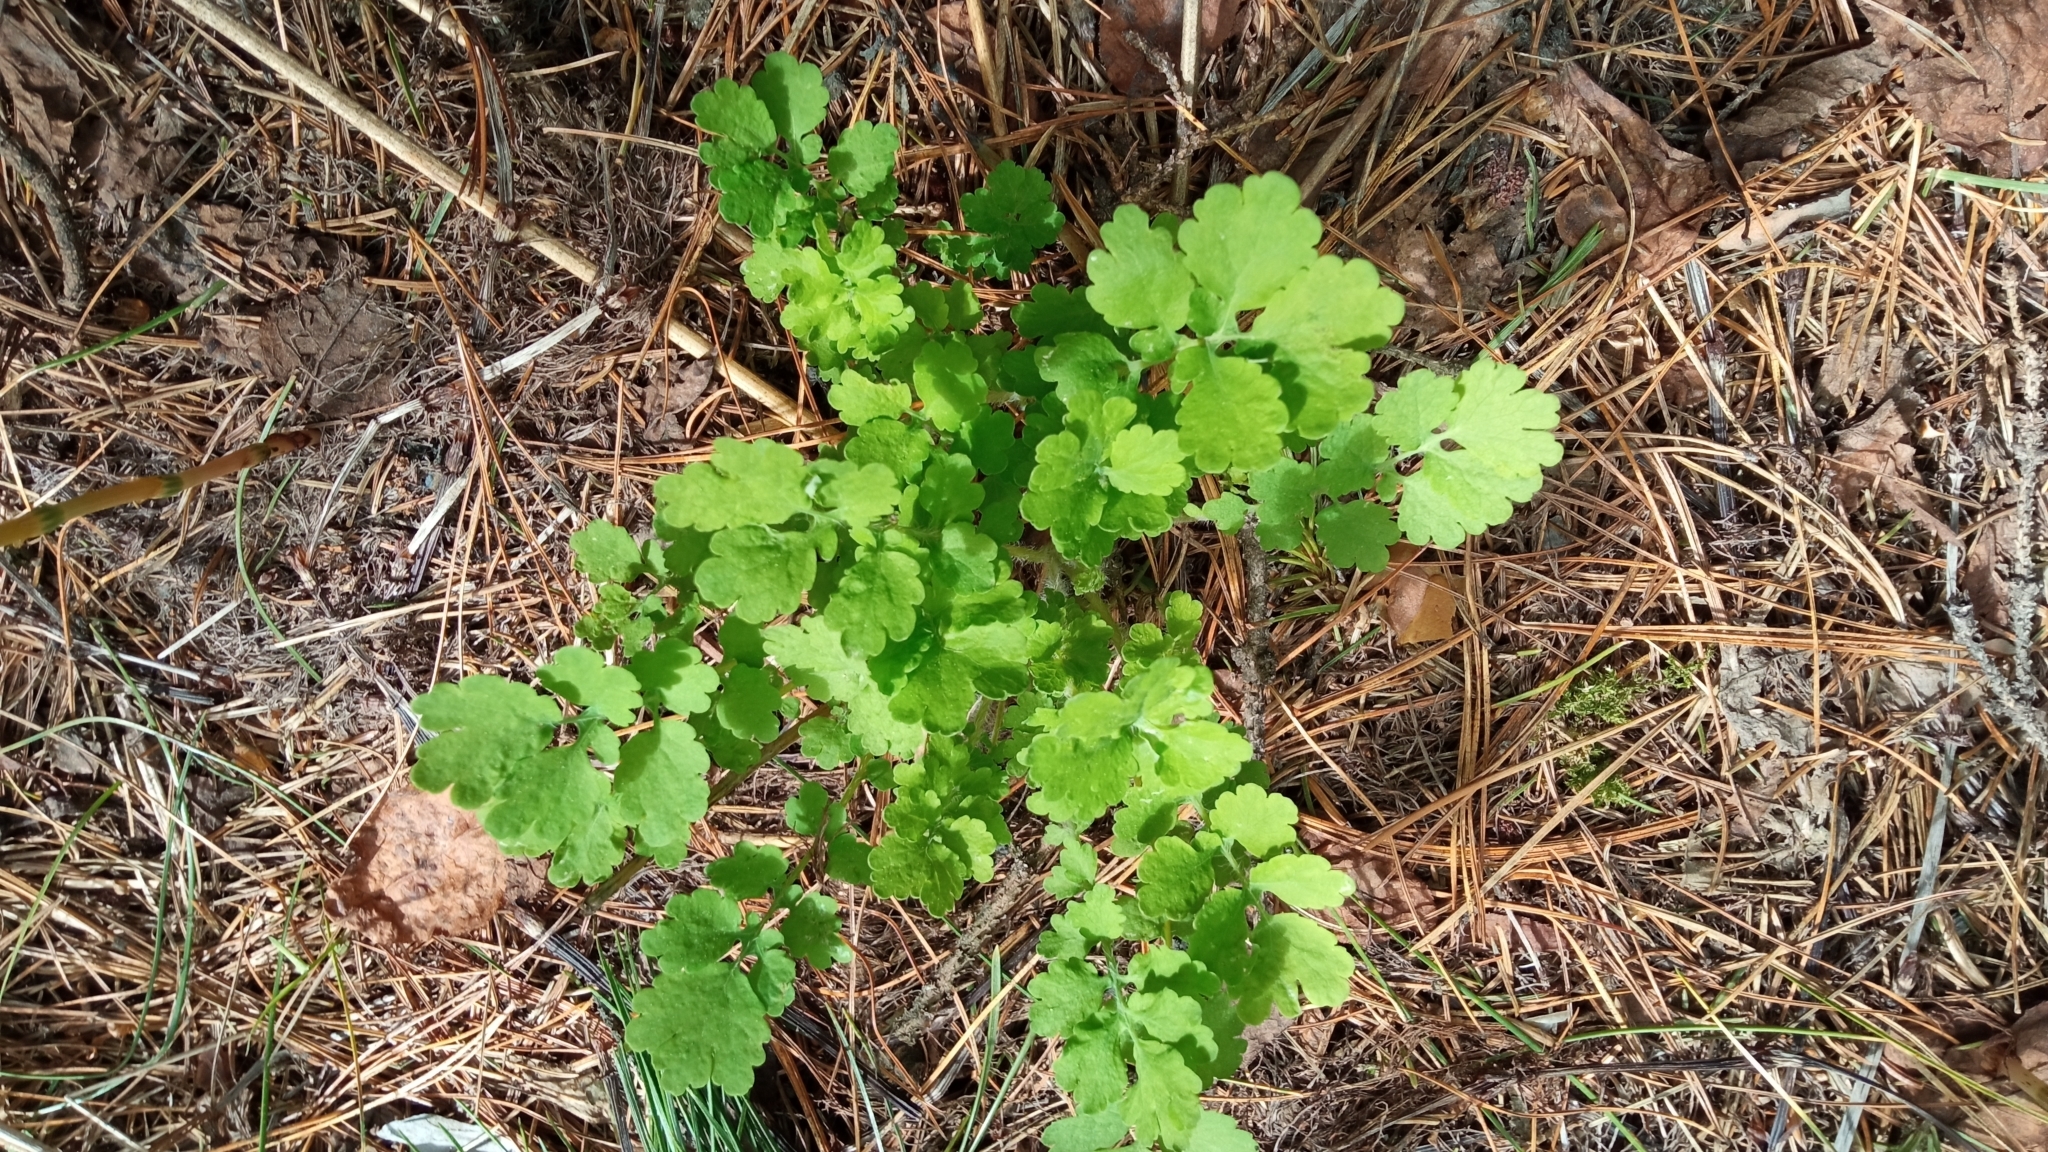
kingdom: Plantae
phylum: Tracheophyta
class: Magnoliopsida
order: Ranunculales
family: Papaveraceae
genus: Chelidonium
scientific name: Chelidonium majus
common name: Greater celandine
